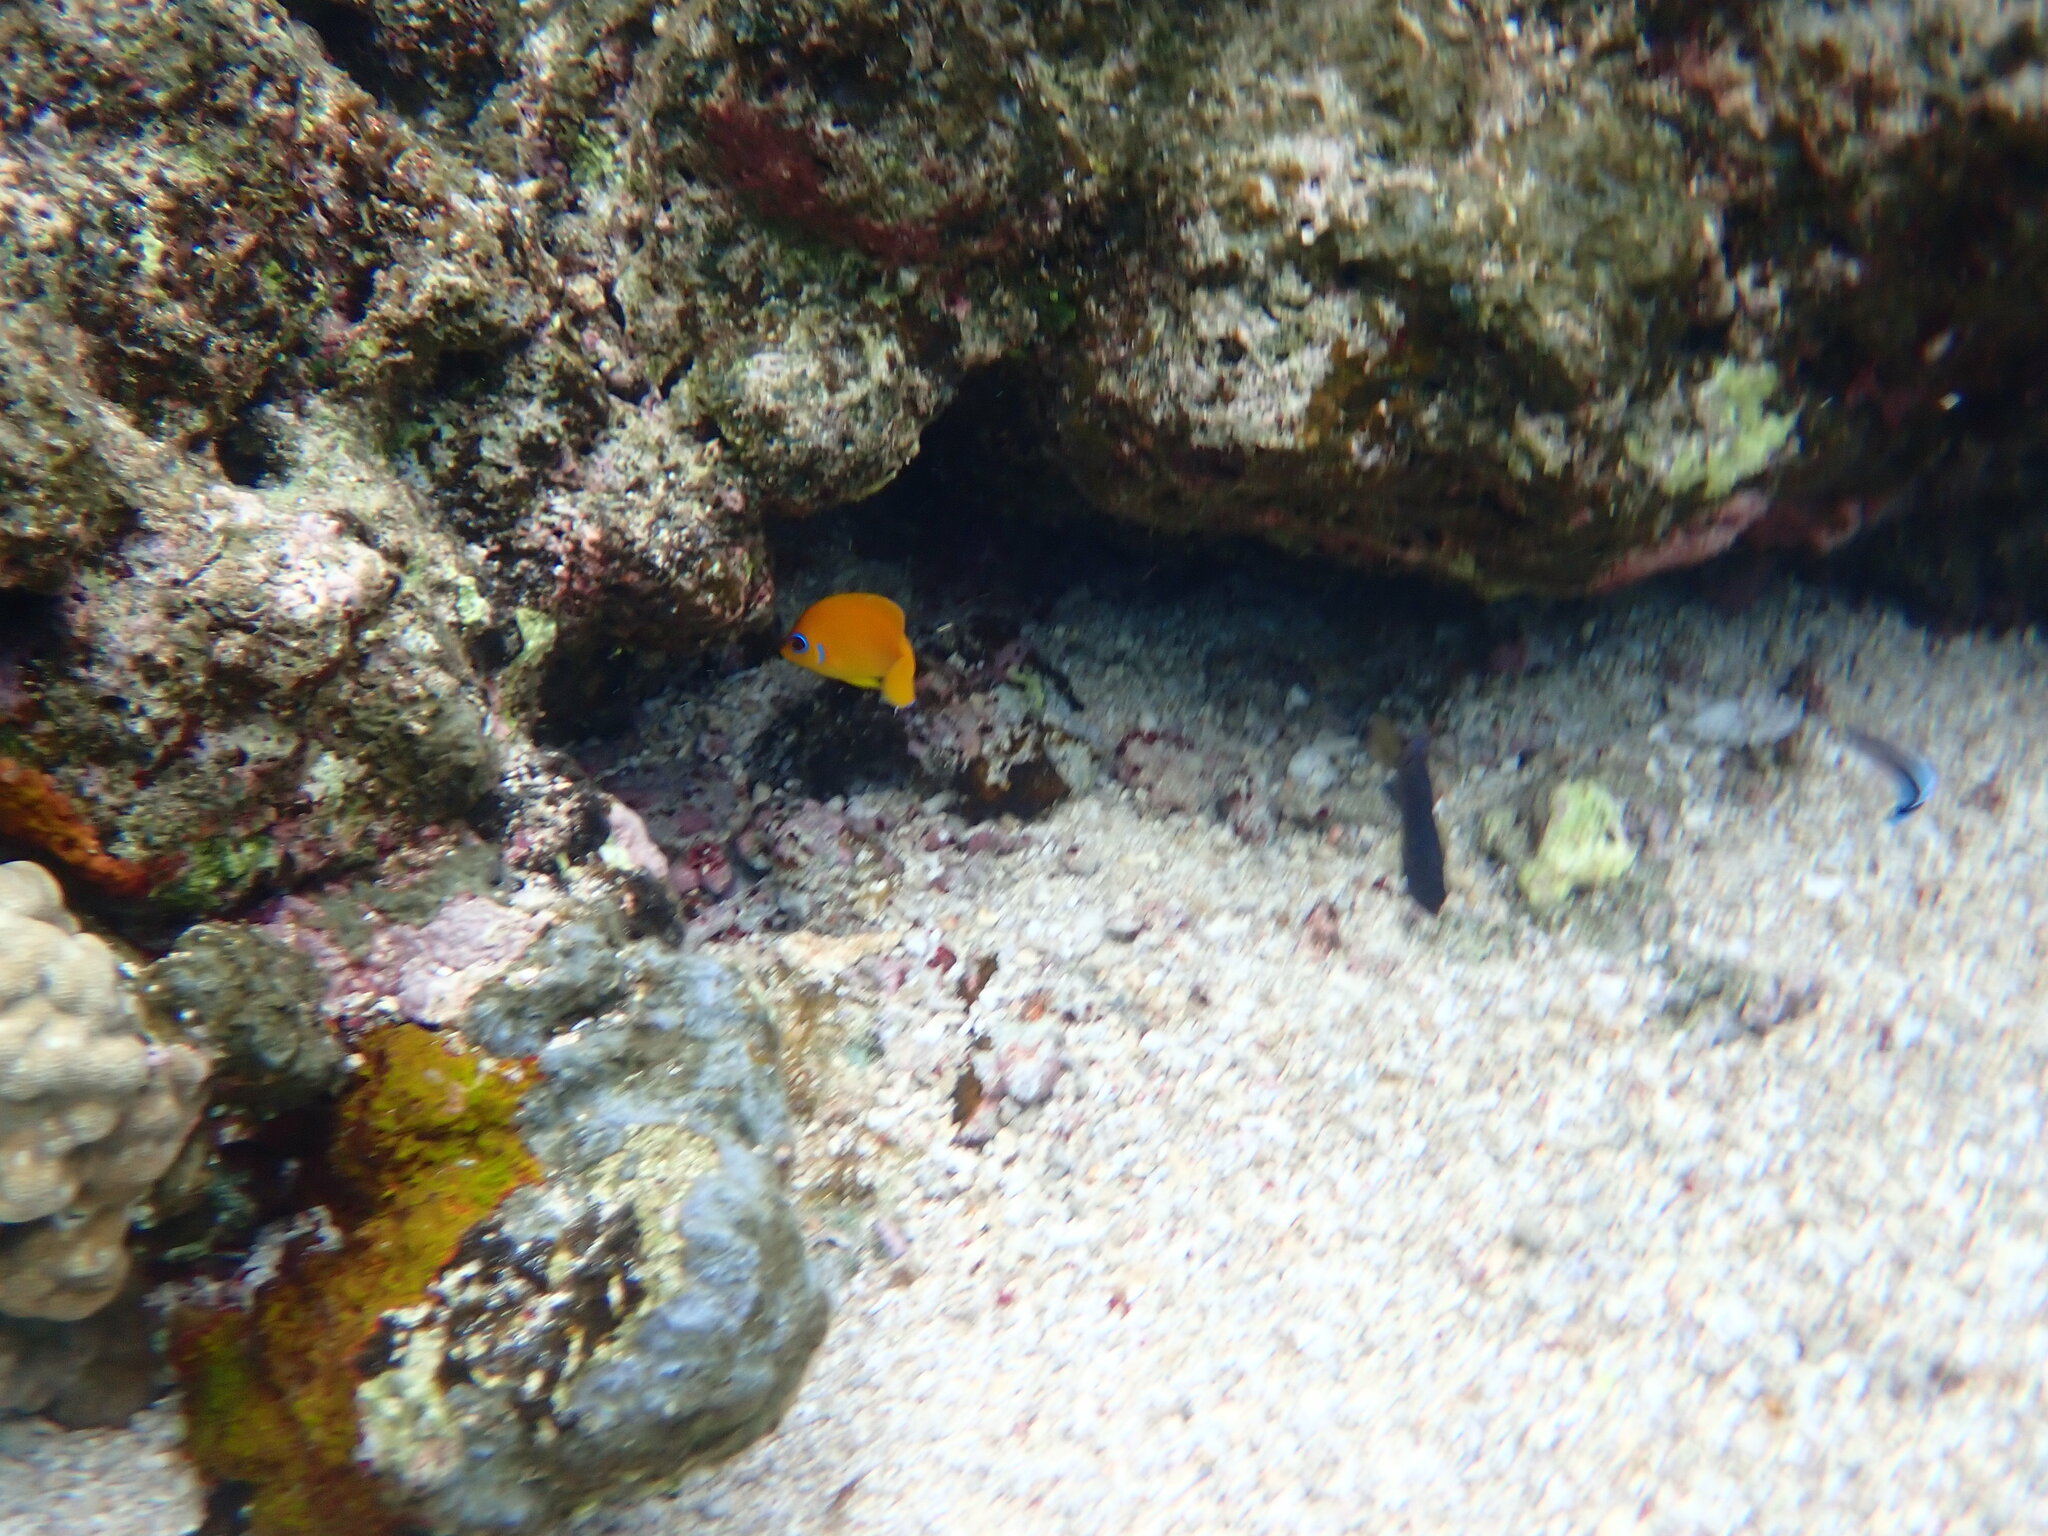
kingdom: Animalia
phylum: Chordata
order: Perciformes
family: Pomacanthidae
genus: Centropyge
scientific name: Centropyge flavissima
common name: Lemonpeel angelfish
